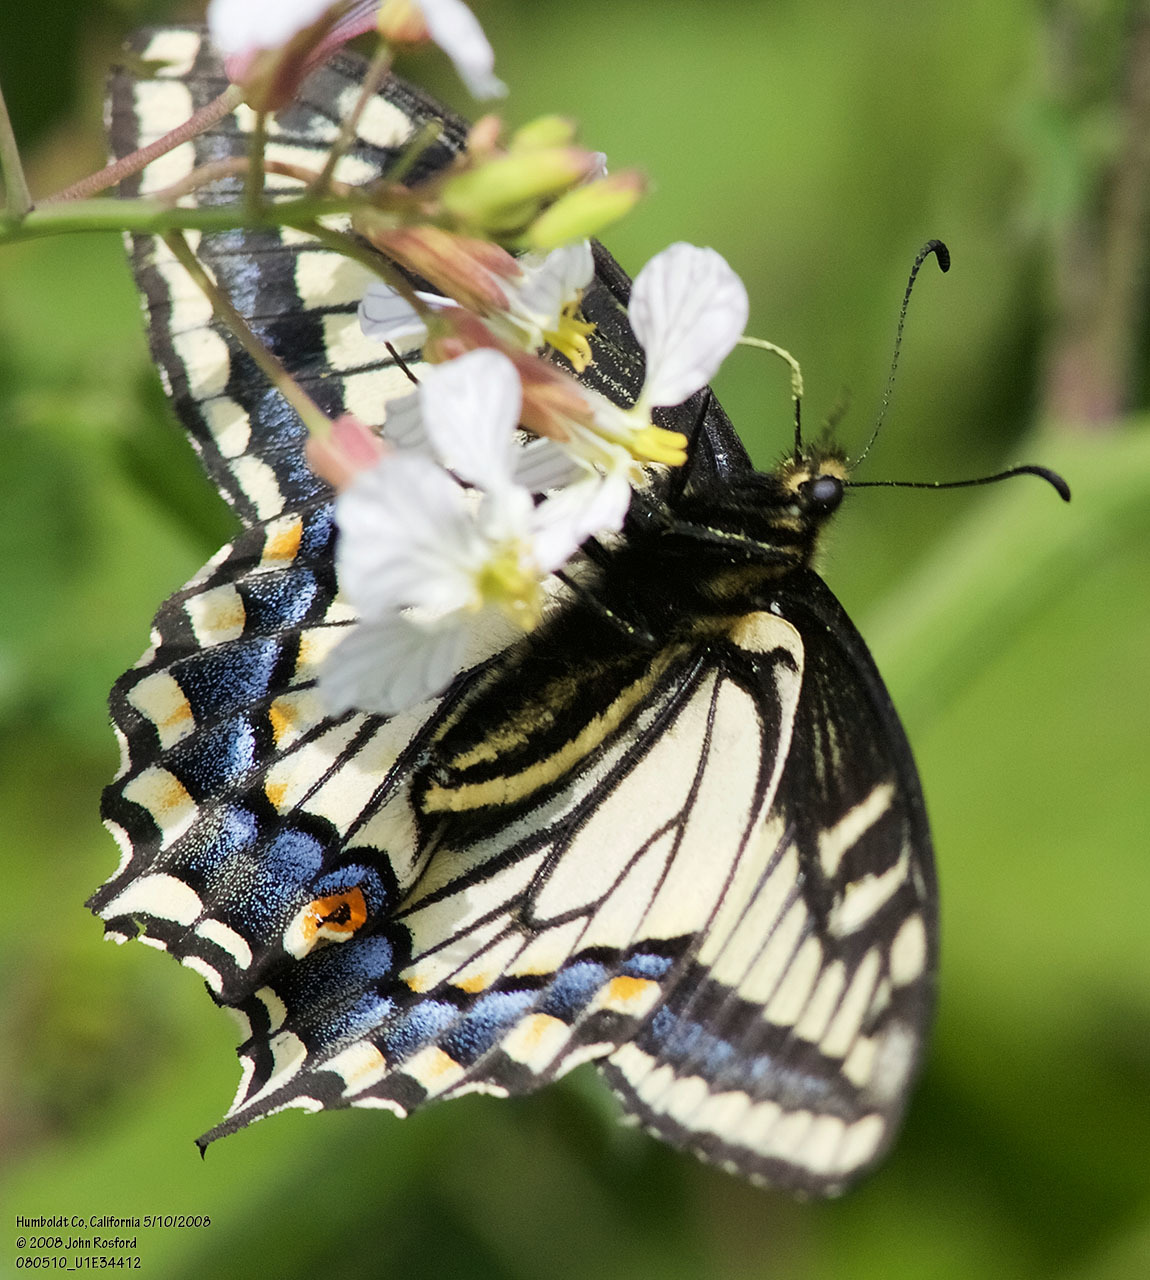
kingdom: Animalia
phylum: Arthropoda
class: Insecta
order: Lepidoptera
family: Papilionidae
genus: Papilio
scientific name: Papilio zelicaon
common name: Anise swallowtail
